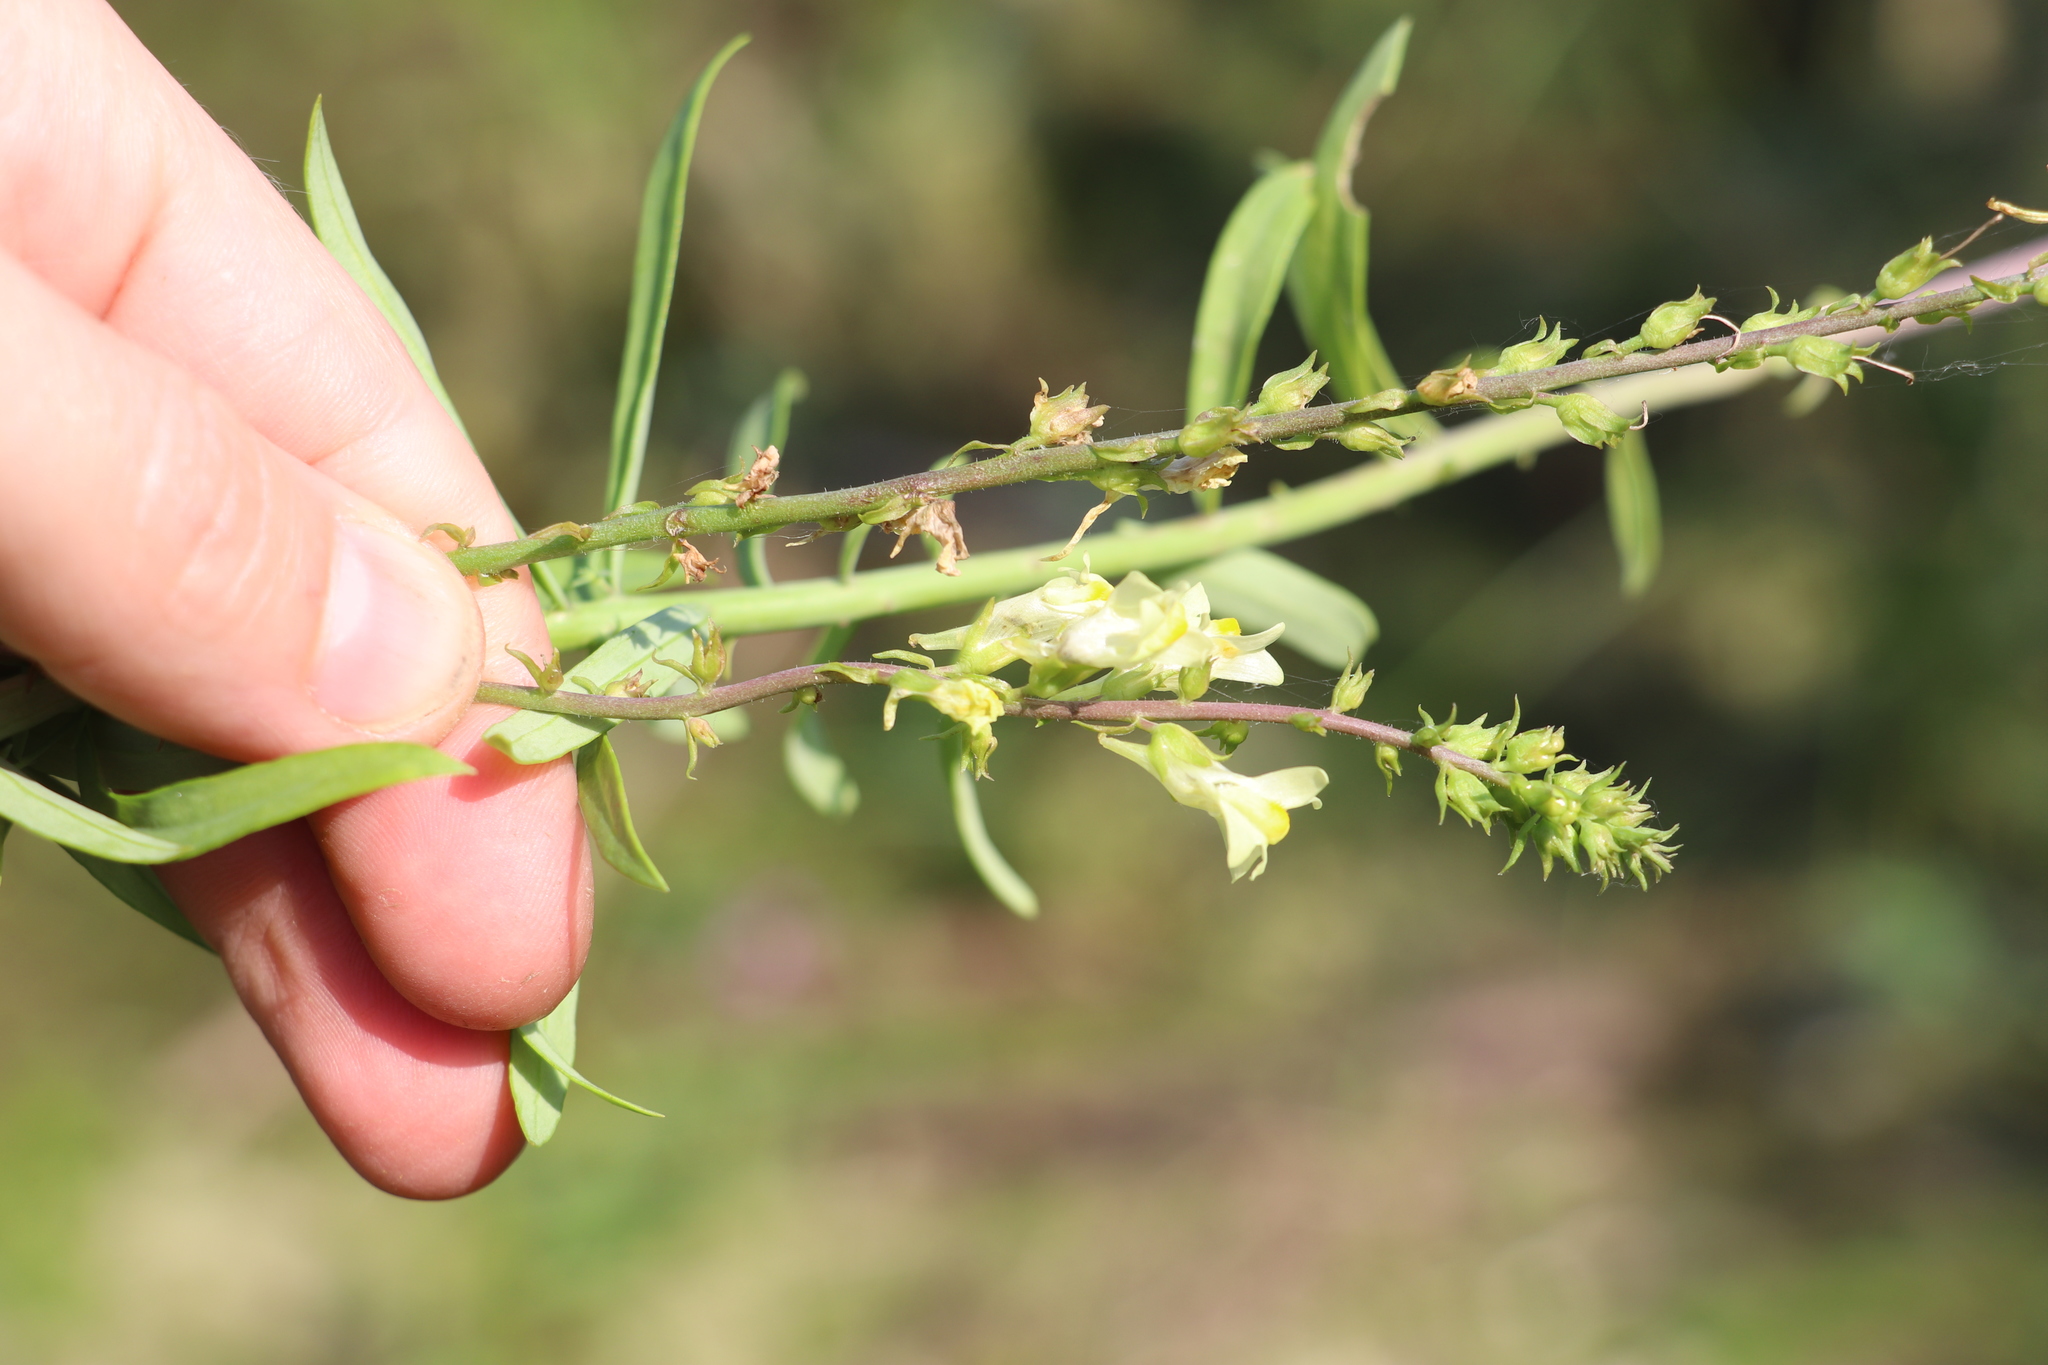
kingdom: Plantae
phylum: Tracheophyta
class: Magnoliopsida
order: Lamiales
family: Plantaginaceae
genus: Linaria
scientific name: Linaria vulgaris
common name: Butter and eggs
